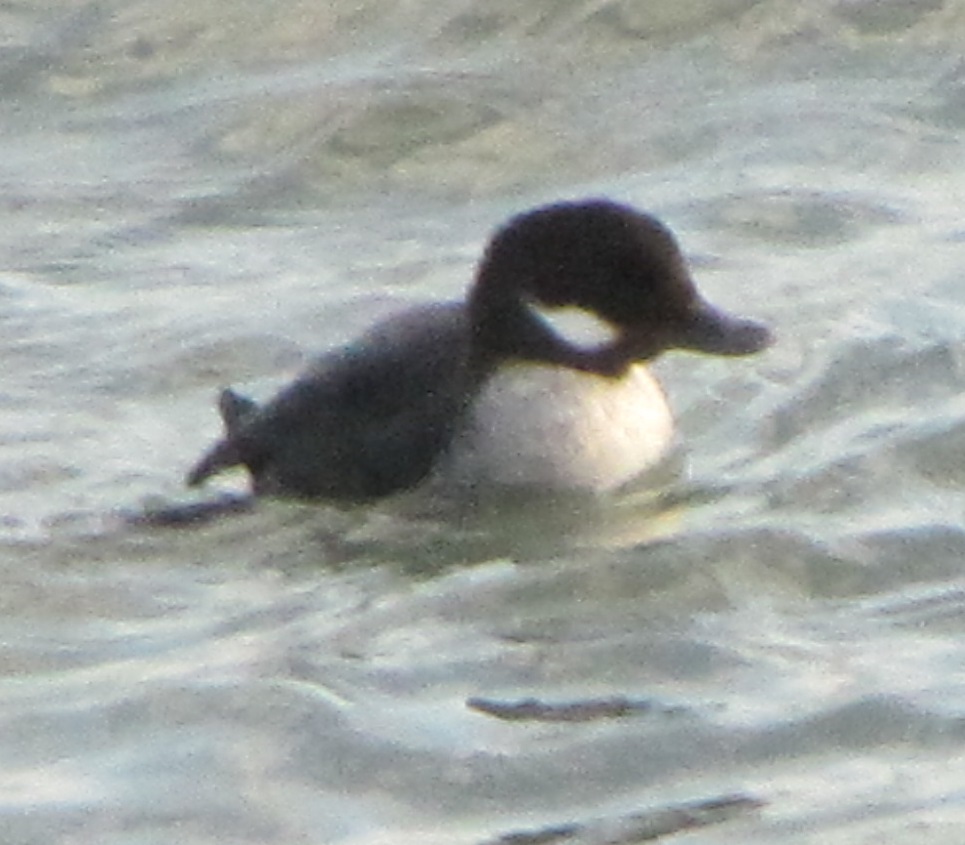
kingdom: Animalia
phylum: Chordata
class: Aves
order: Anseriformes
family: Anatidae
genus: Bucephala
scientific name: Bucephala albeola
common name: Bufflehead
